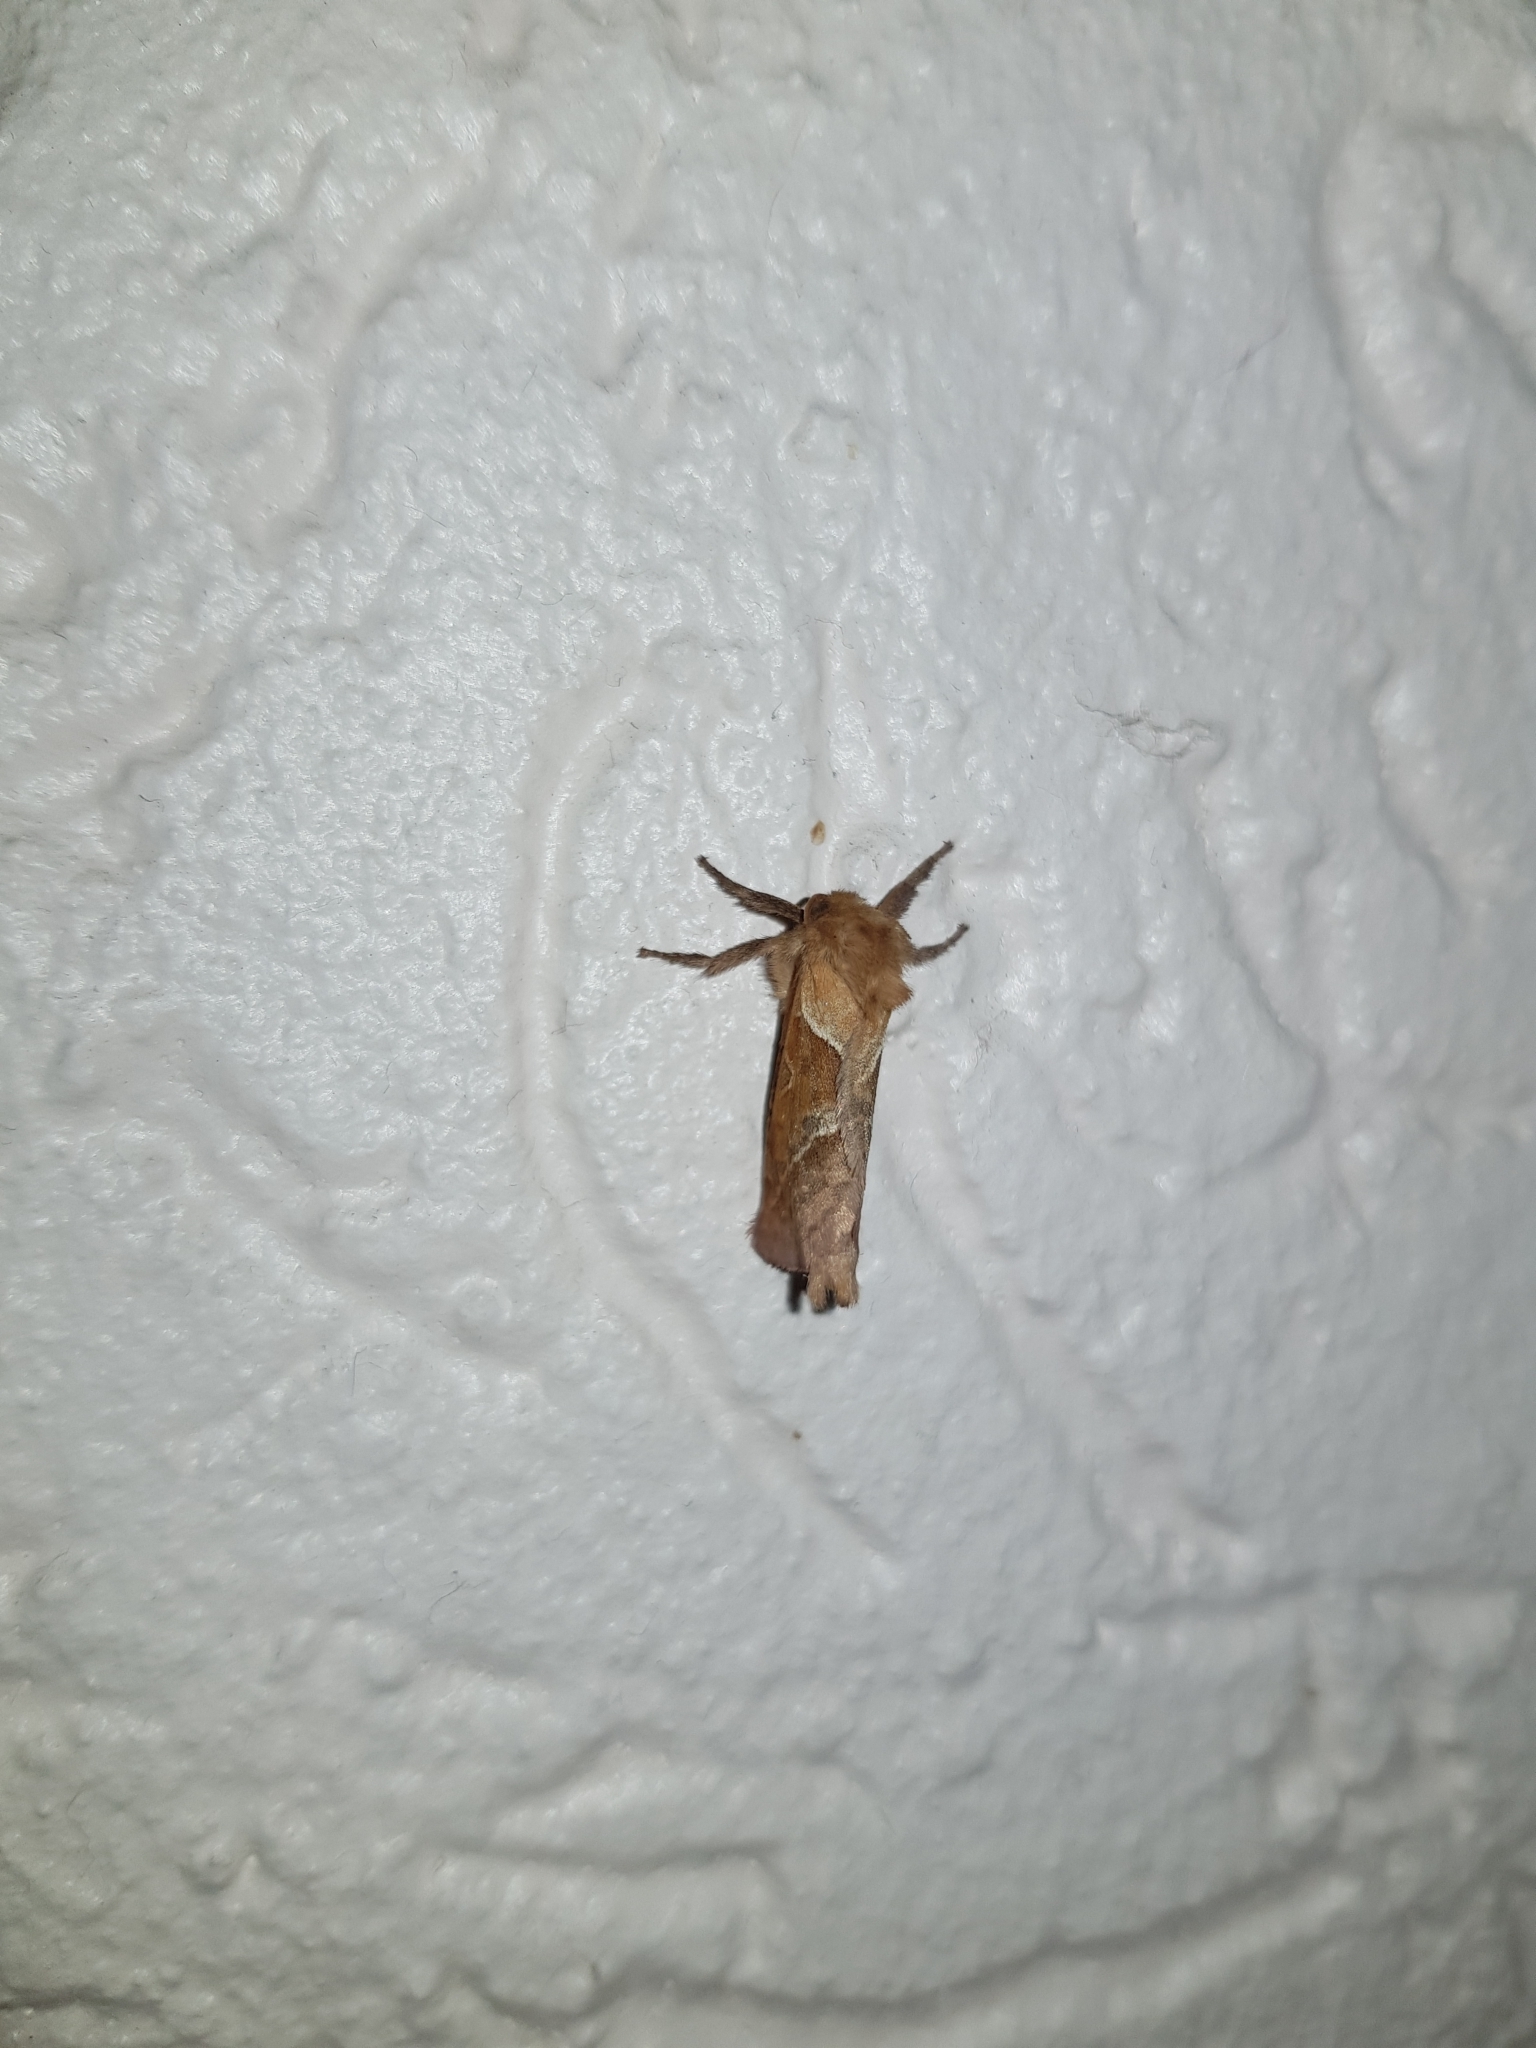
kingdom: Animalia
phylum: Arthropoda
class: Insecta
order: Lepidoptera
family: Hepialidae
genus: Triodia
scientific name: Triodia sylvina
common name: Orange swift
